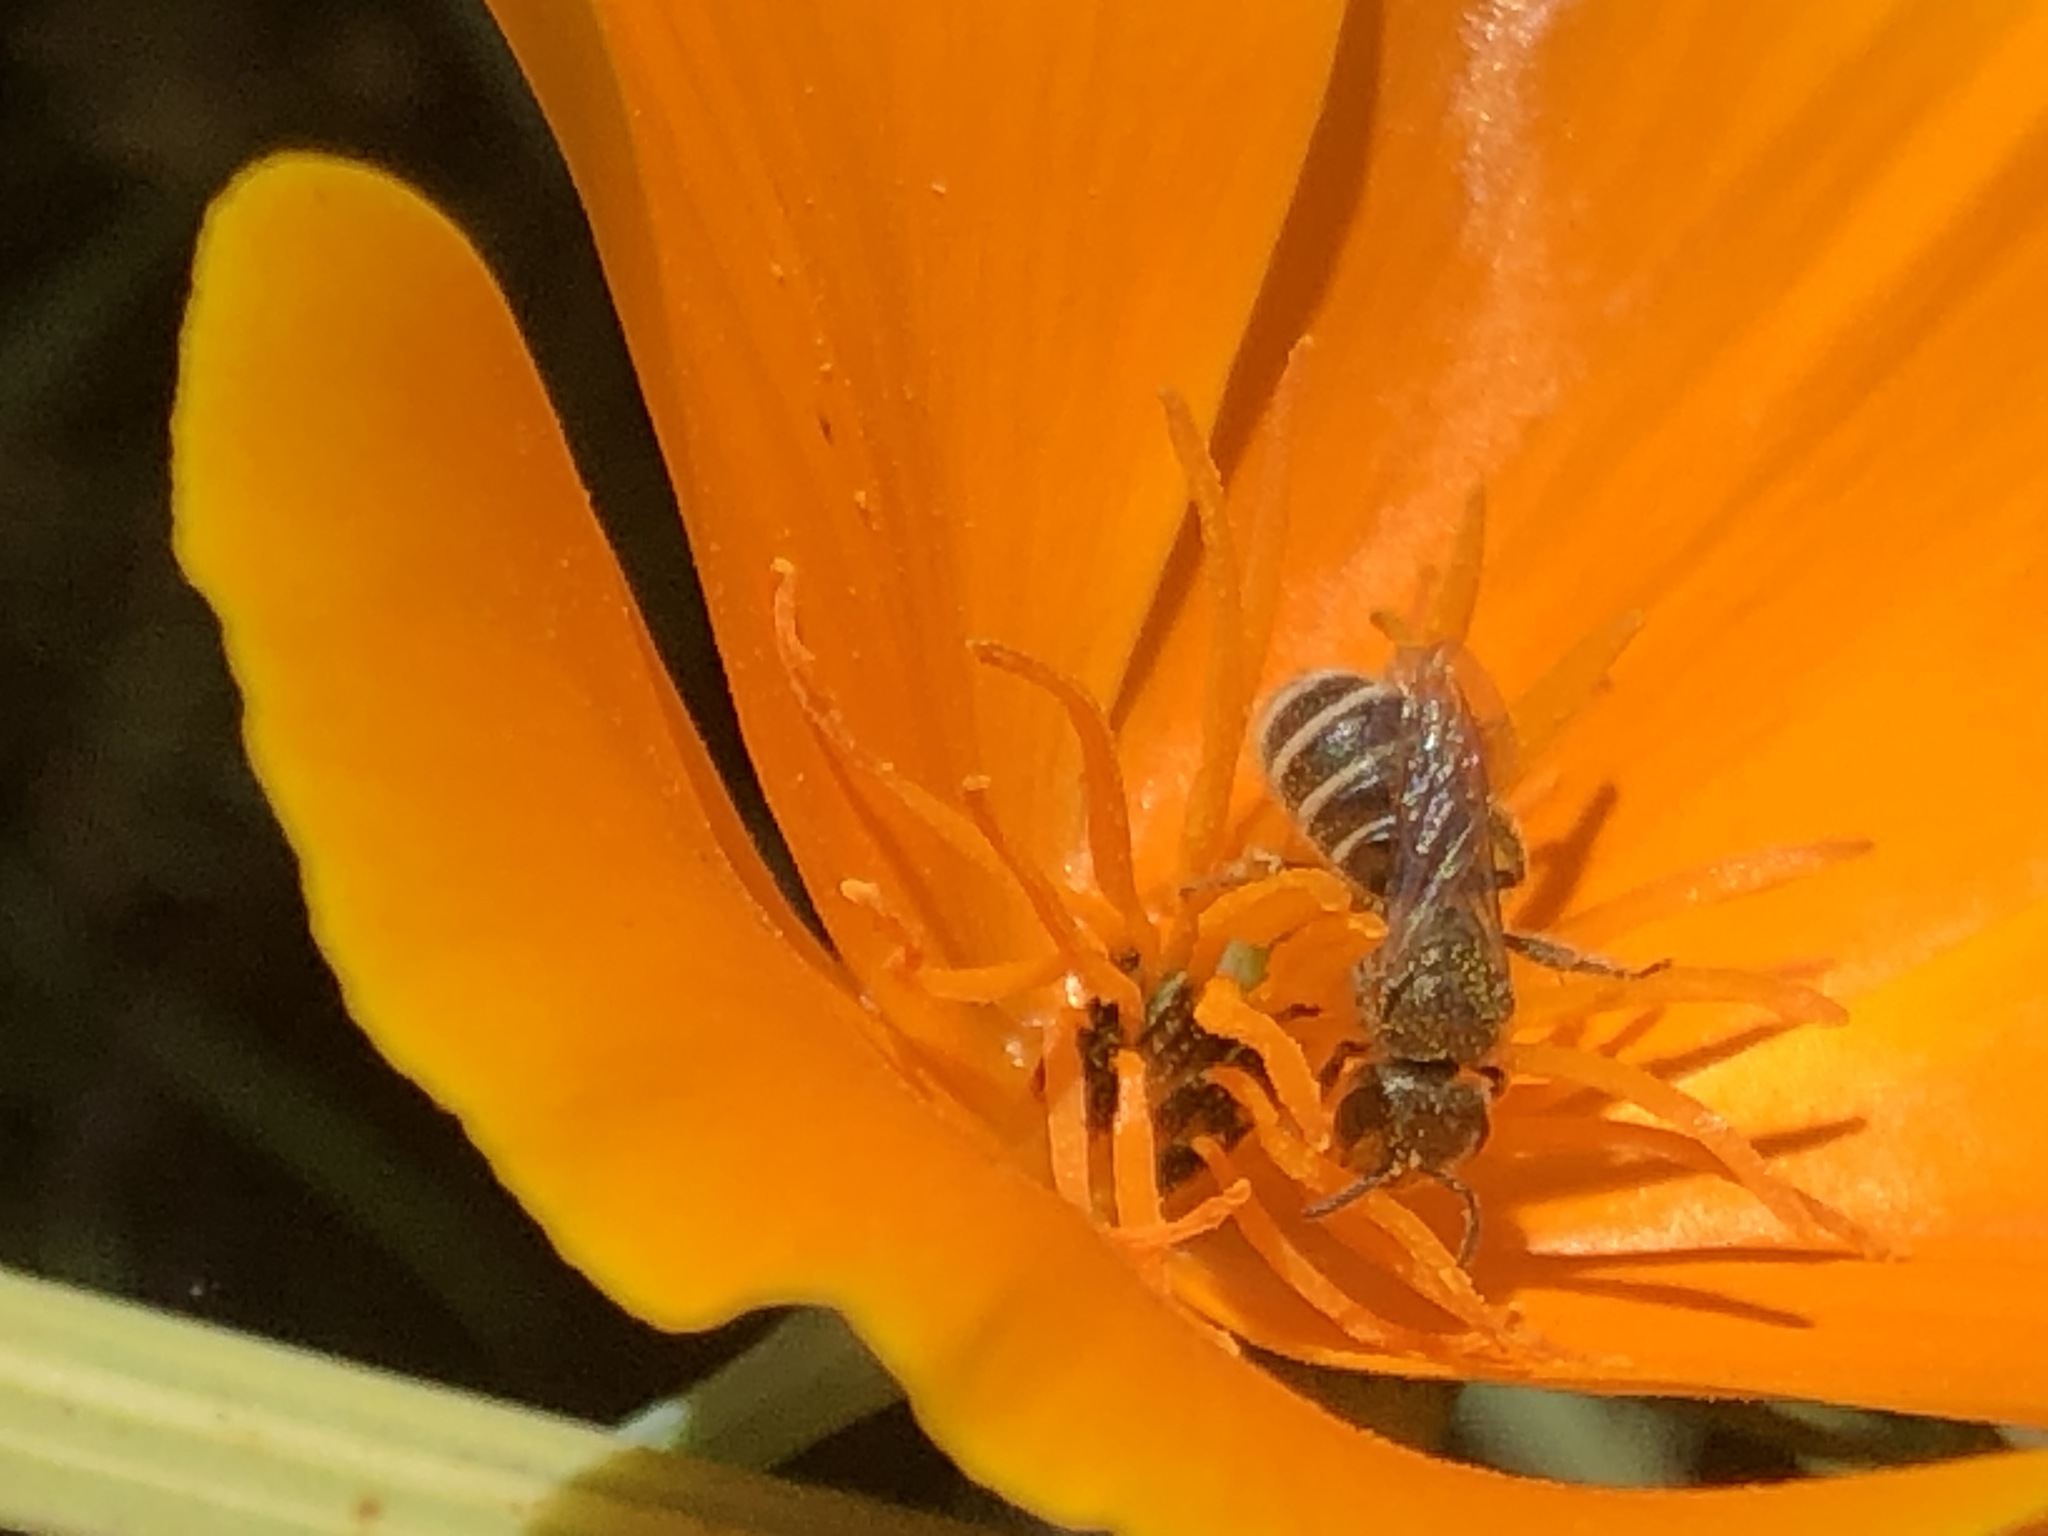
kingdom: Animalia
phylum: Arthropoda
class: Insecta
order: Hymenoptera
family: Halictidae
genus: Halictus
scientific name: Halictus tripartitus
